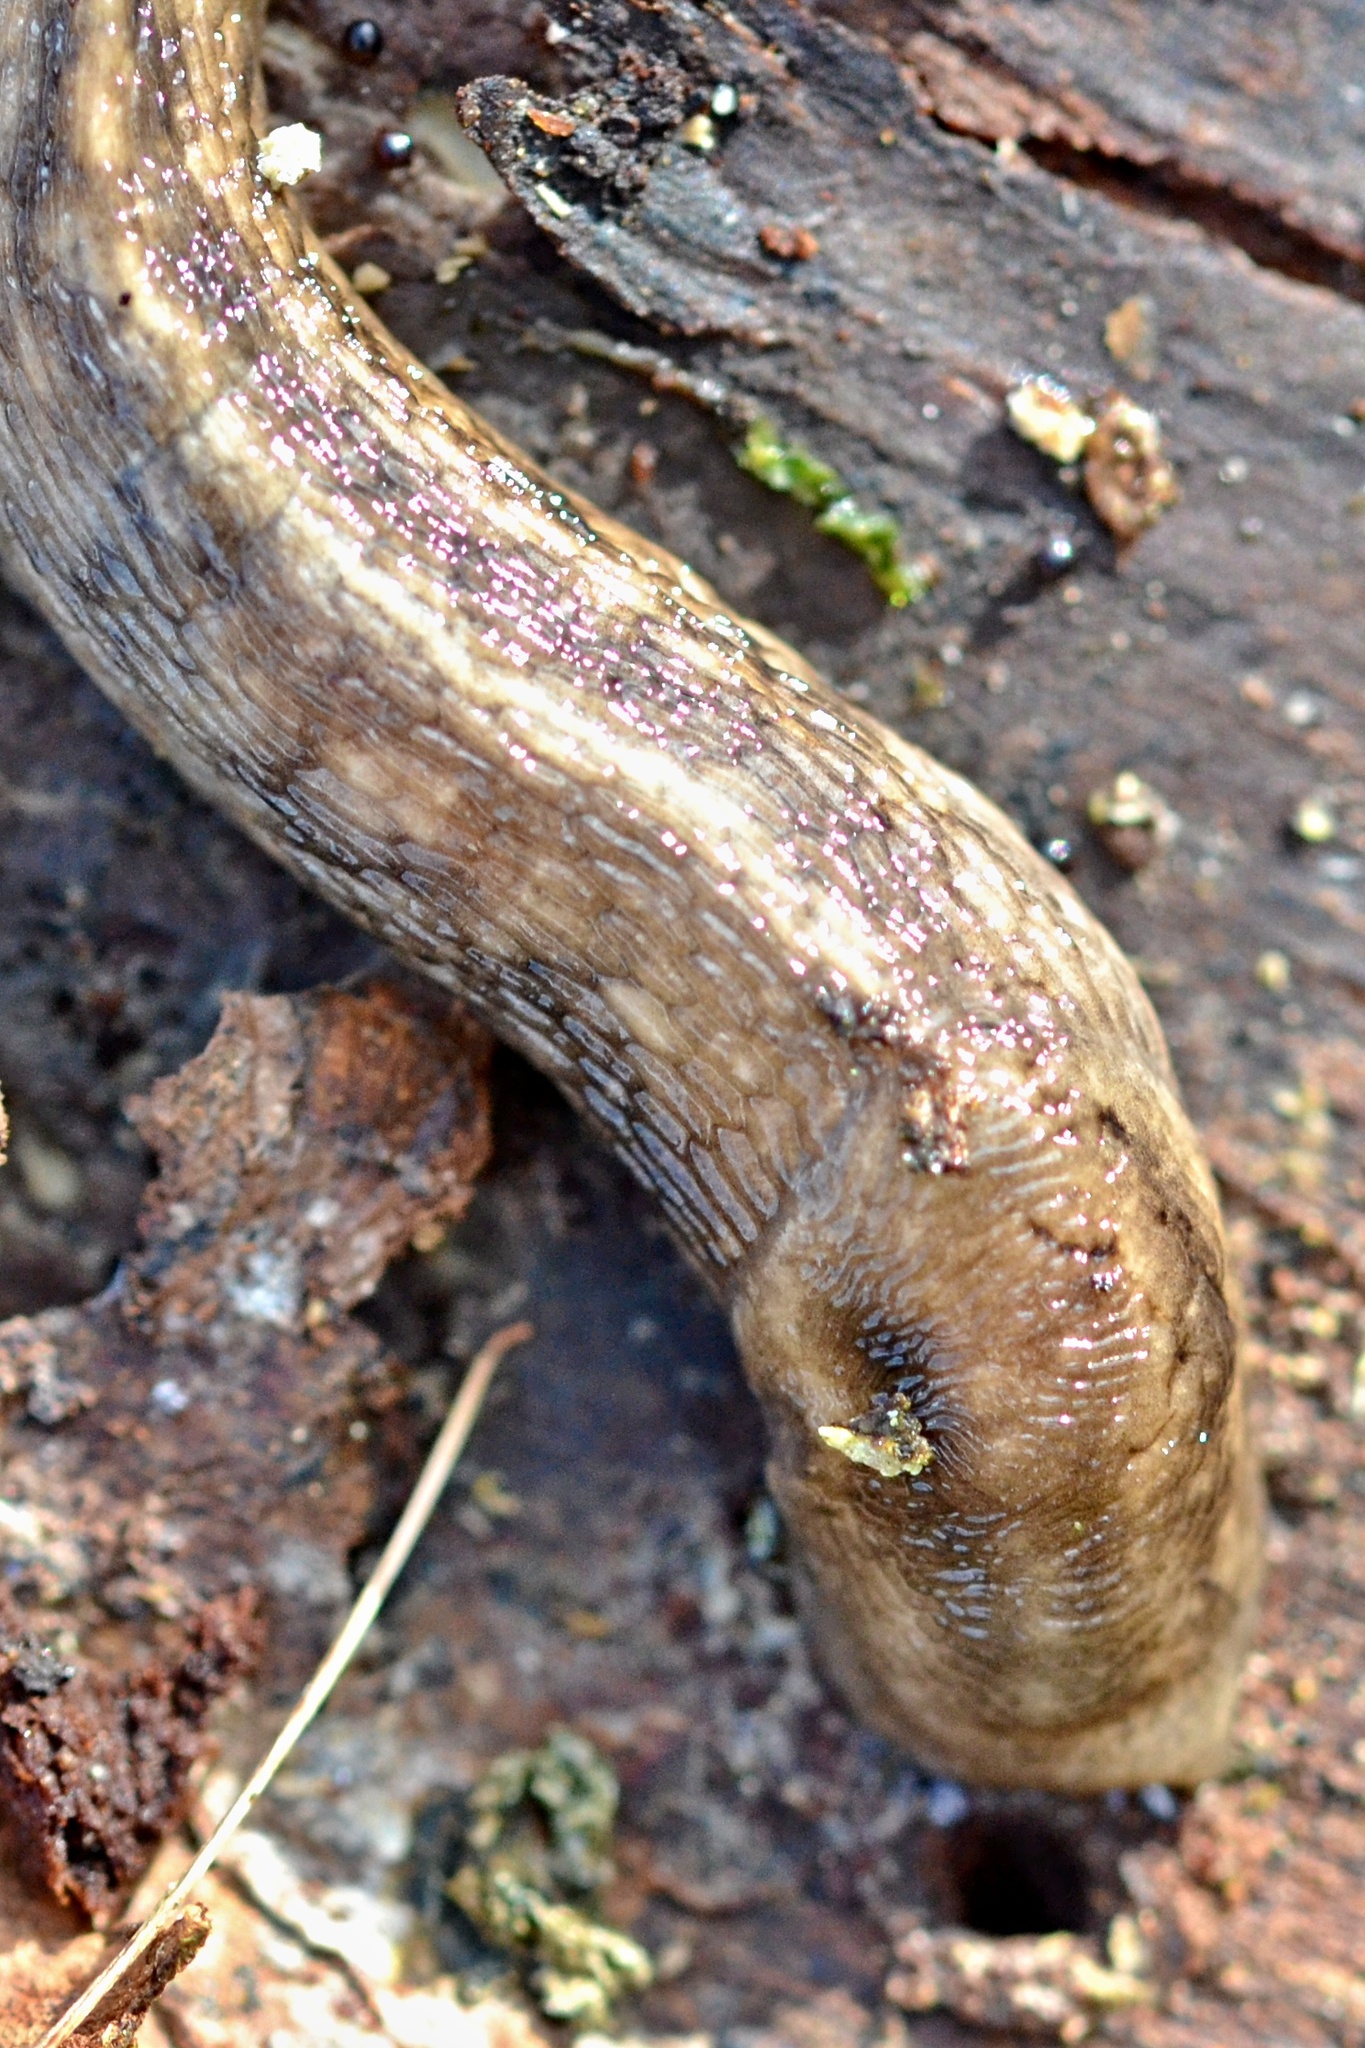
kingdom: Animalia
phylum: Mollusca
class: Gastropoda
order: Stylommatophora
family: Limacidae
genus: Lehmannia
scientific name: Lehmannia marginata
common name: Tree slug
